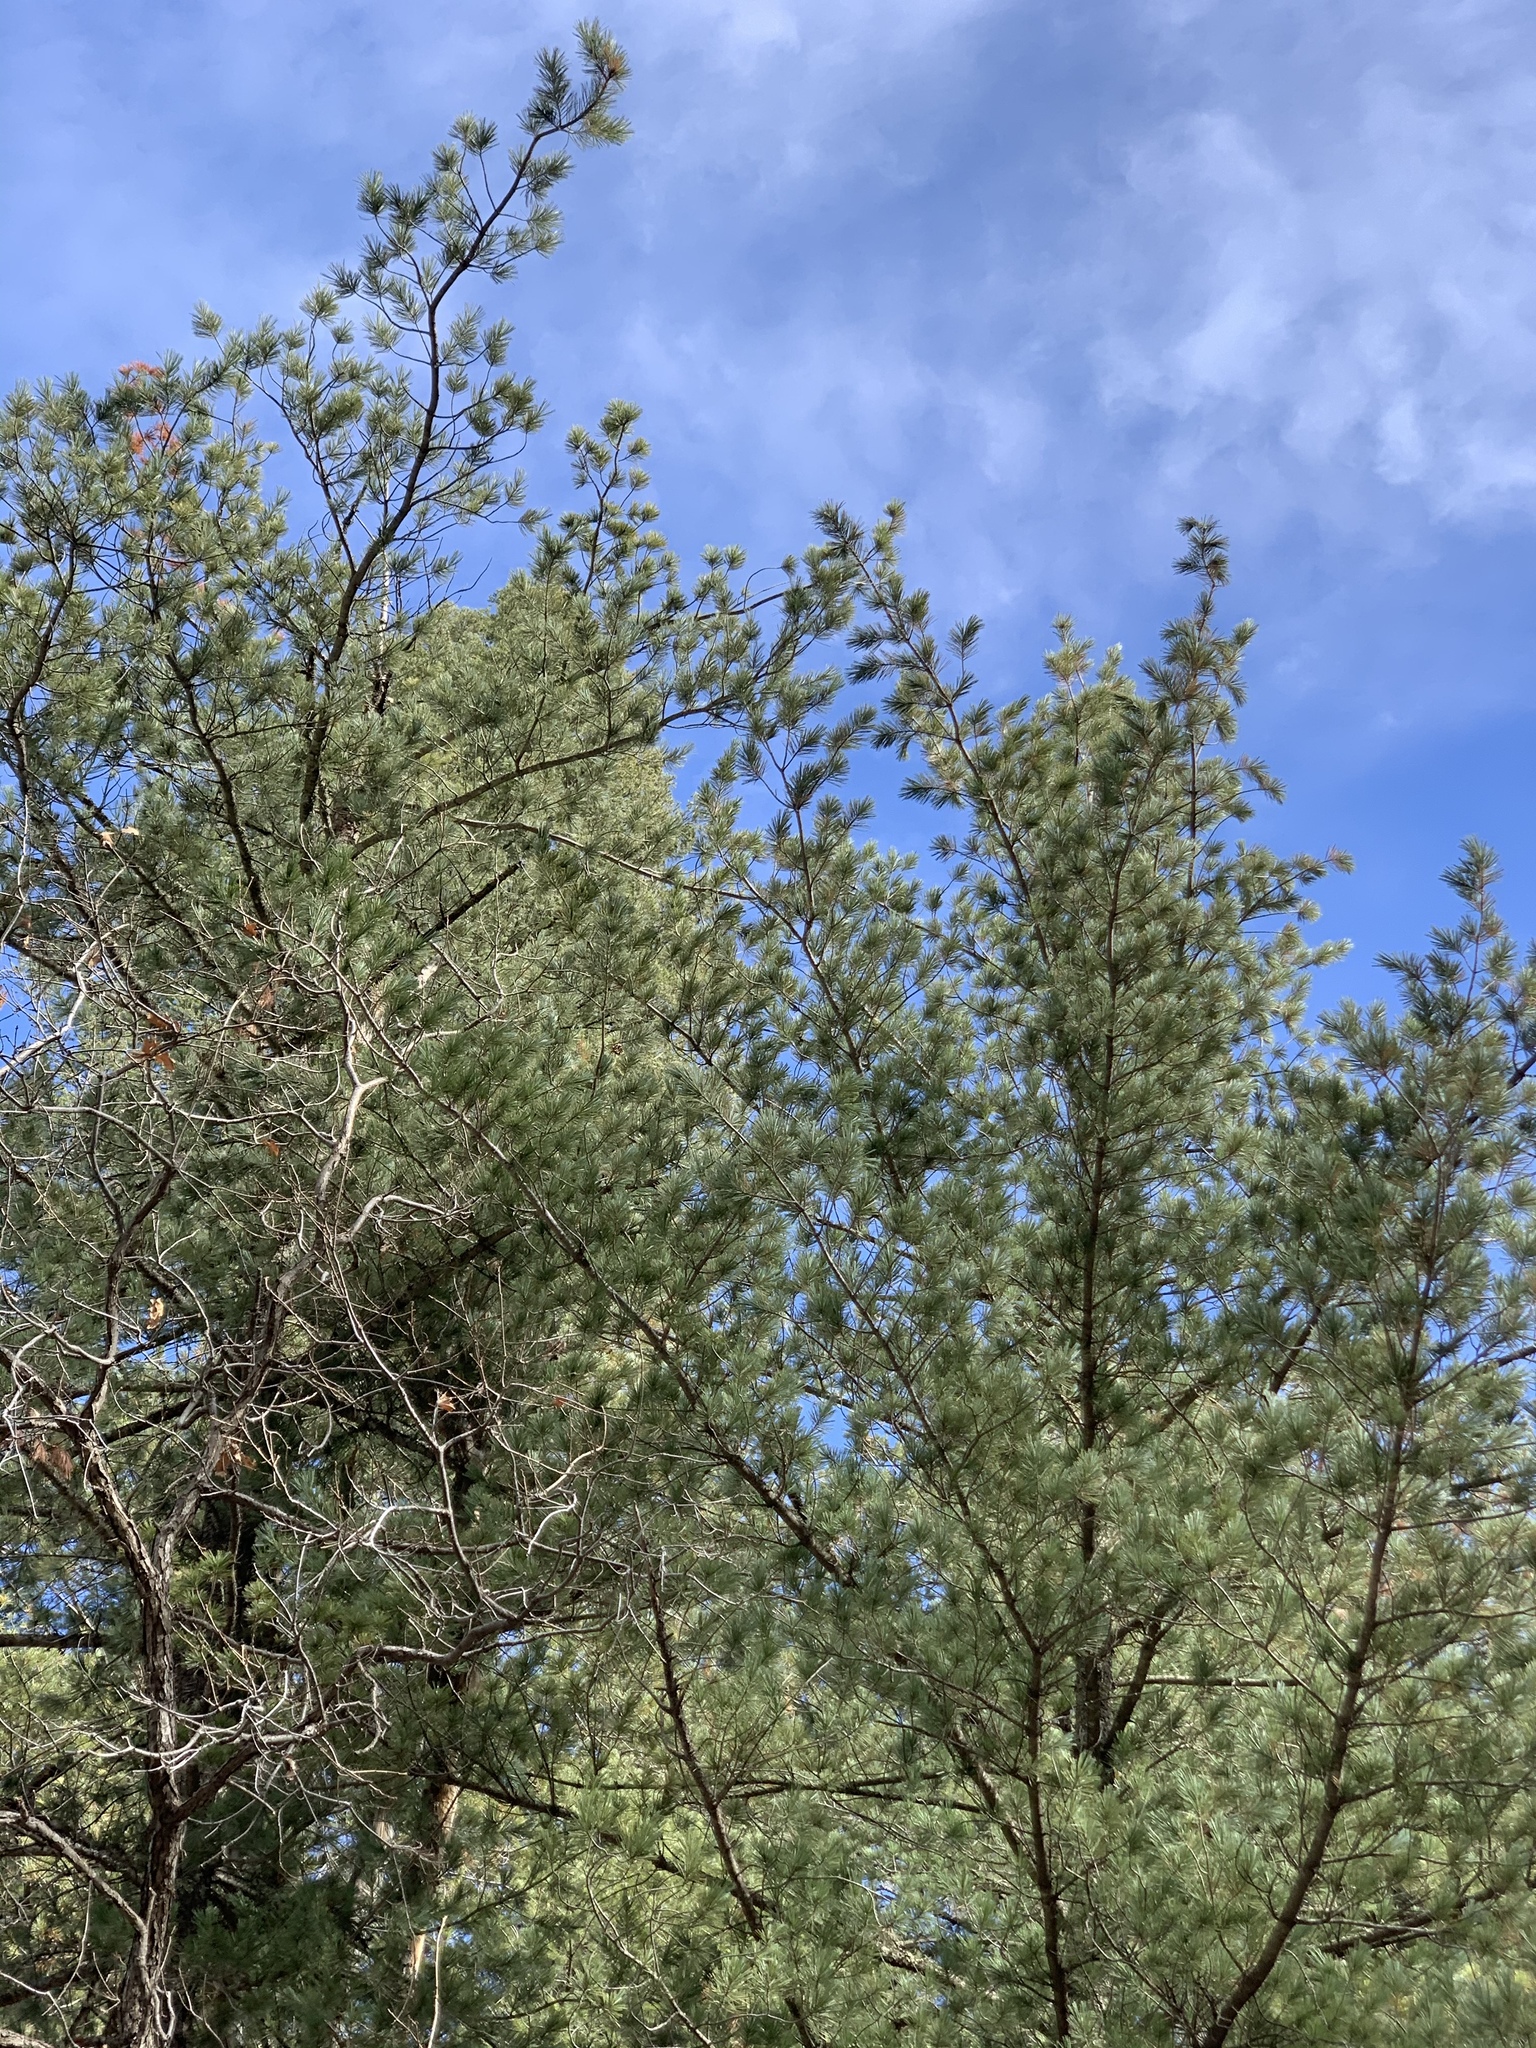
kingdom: Plantae
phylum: Tracheophyta
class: Pinopsida
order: Pinales
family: Pinaceae
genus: Pinus
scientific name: Pinus strobiformis
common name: Southwestern white pine
